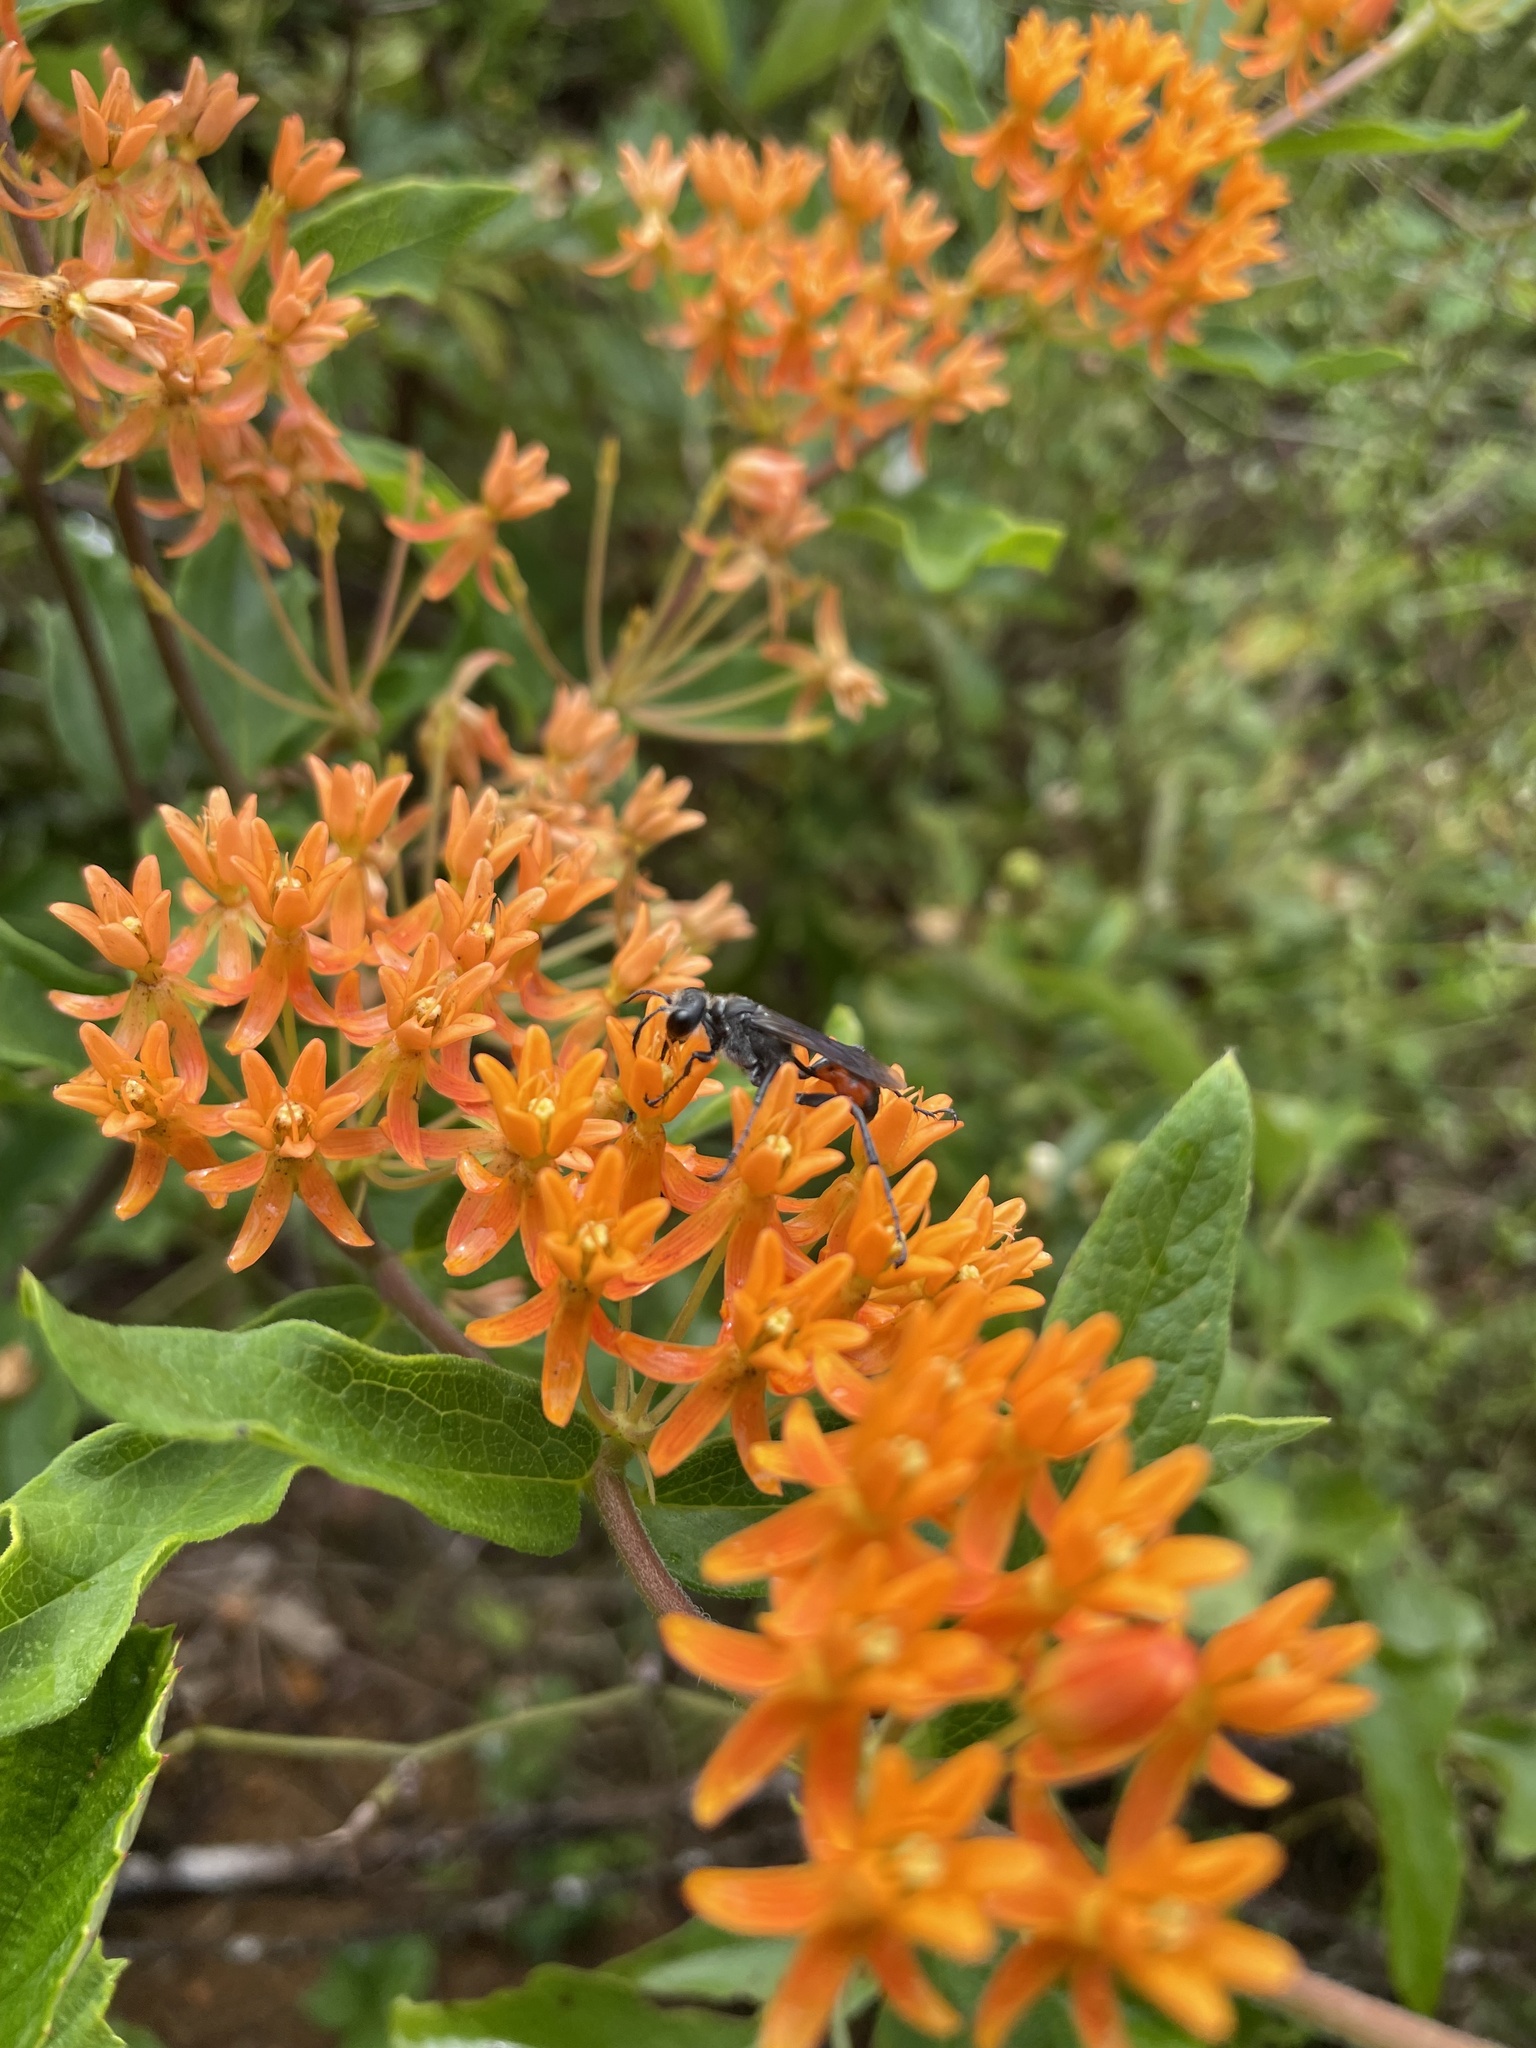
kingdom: Animalia
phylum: Arthropoda
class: Insecta
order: Hymenoptera
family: Sphecidae
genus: Ammophila
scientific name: Ammophila procera
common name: Common thread-waisted wasp
